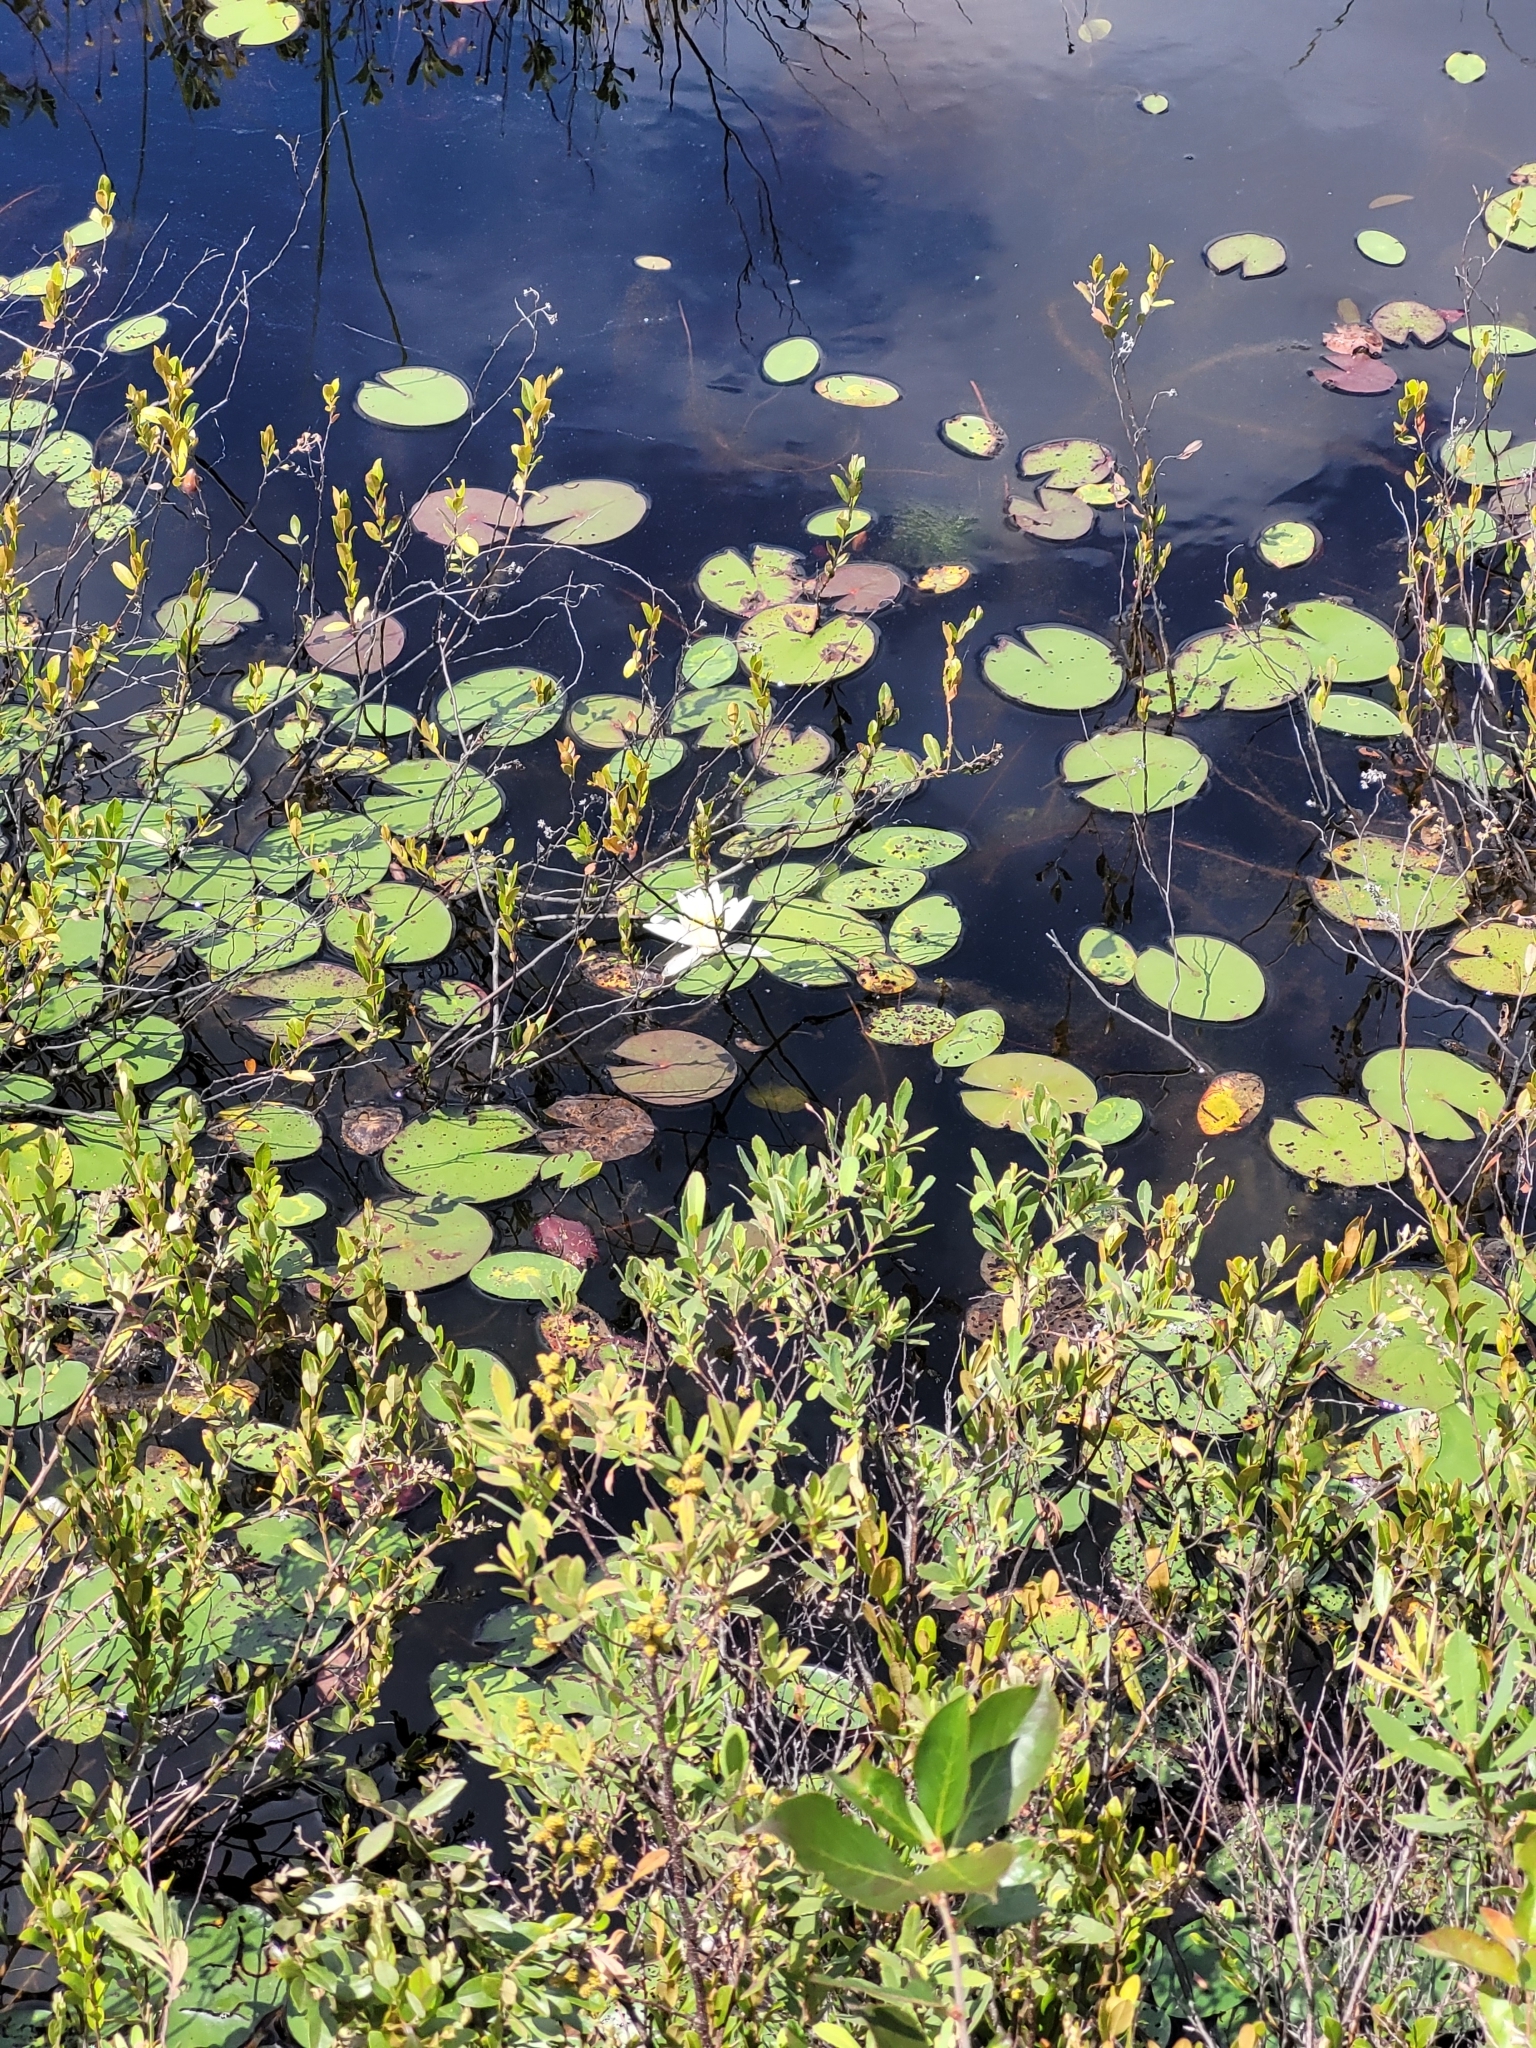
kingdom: Plantae
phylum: Tracheophyta
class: Magnoliopsida
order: Nymphaeales
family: Nymphaeaceae
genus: Nymphaea
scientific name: Nymphaea odorata
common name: Fragrant water-lily
